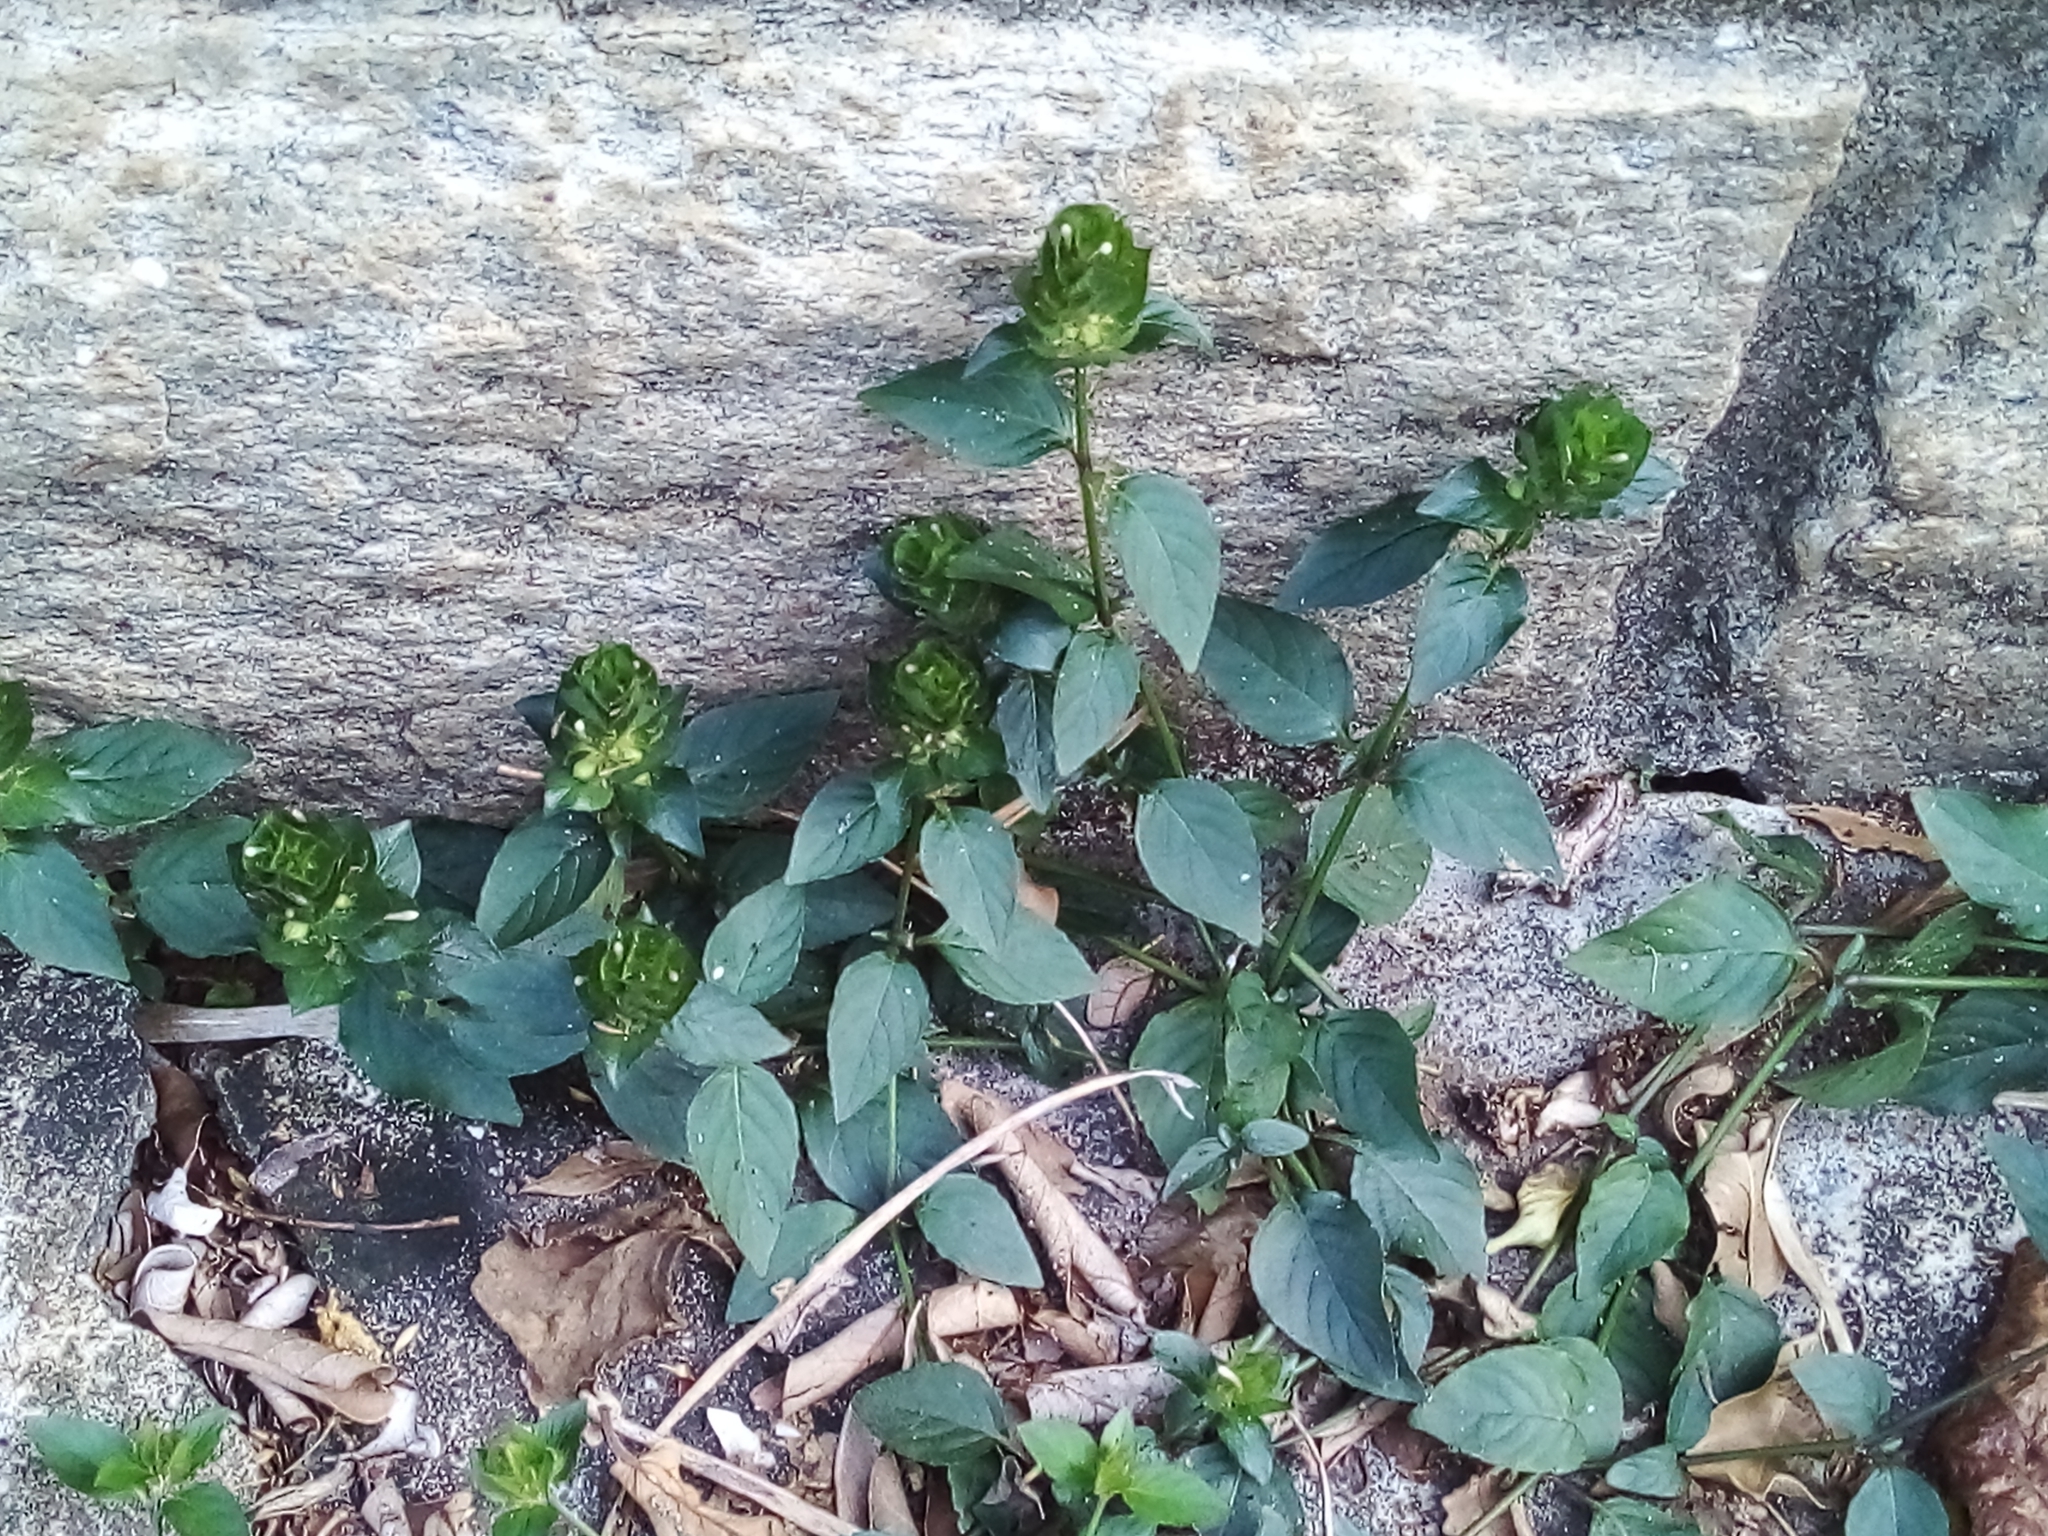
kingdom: Plantae
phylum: Tracheophyta
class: Magnoliopsida
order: Lamiales
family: Acanthaceae
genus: Ruellia
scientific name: Ruellia blechum
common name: Browne's blechum
